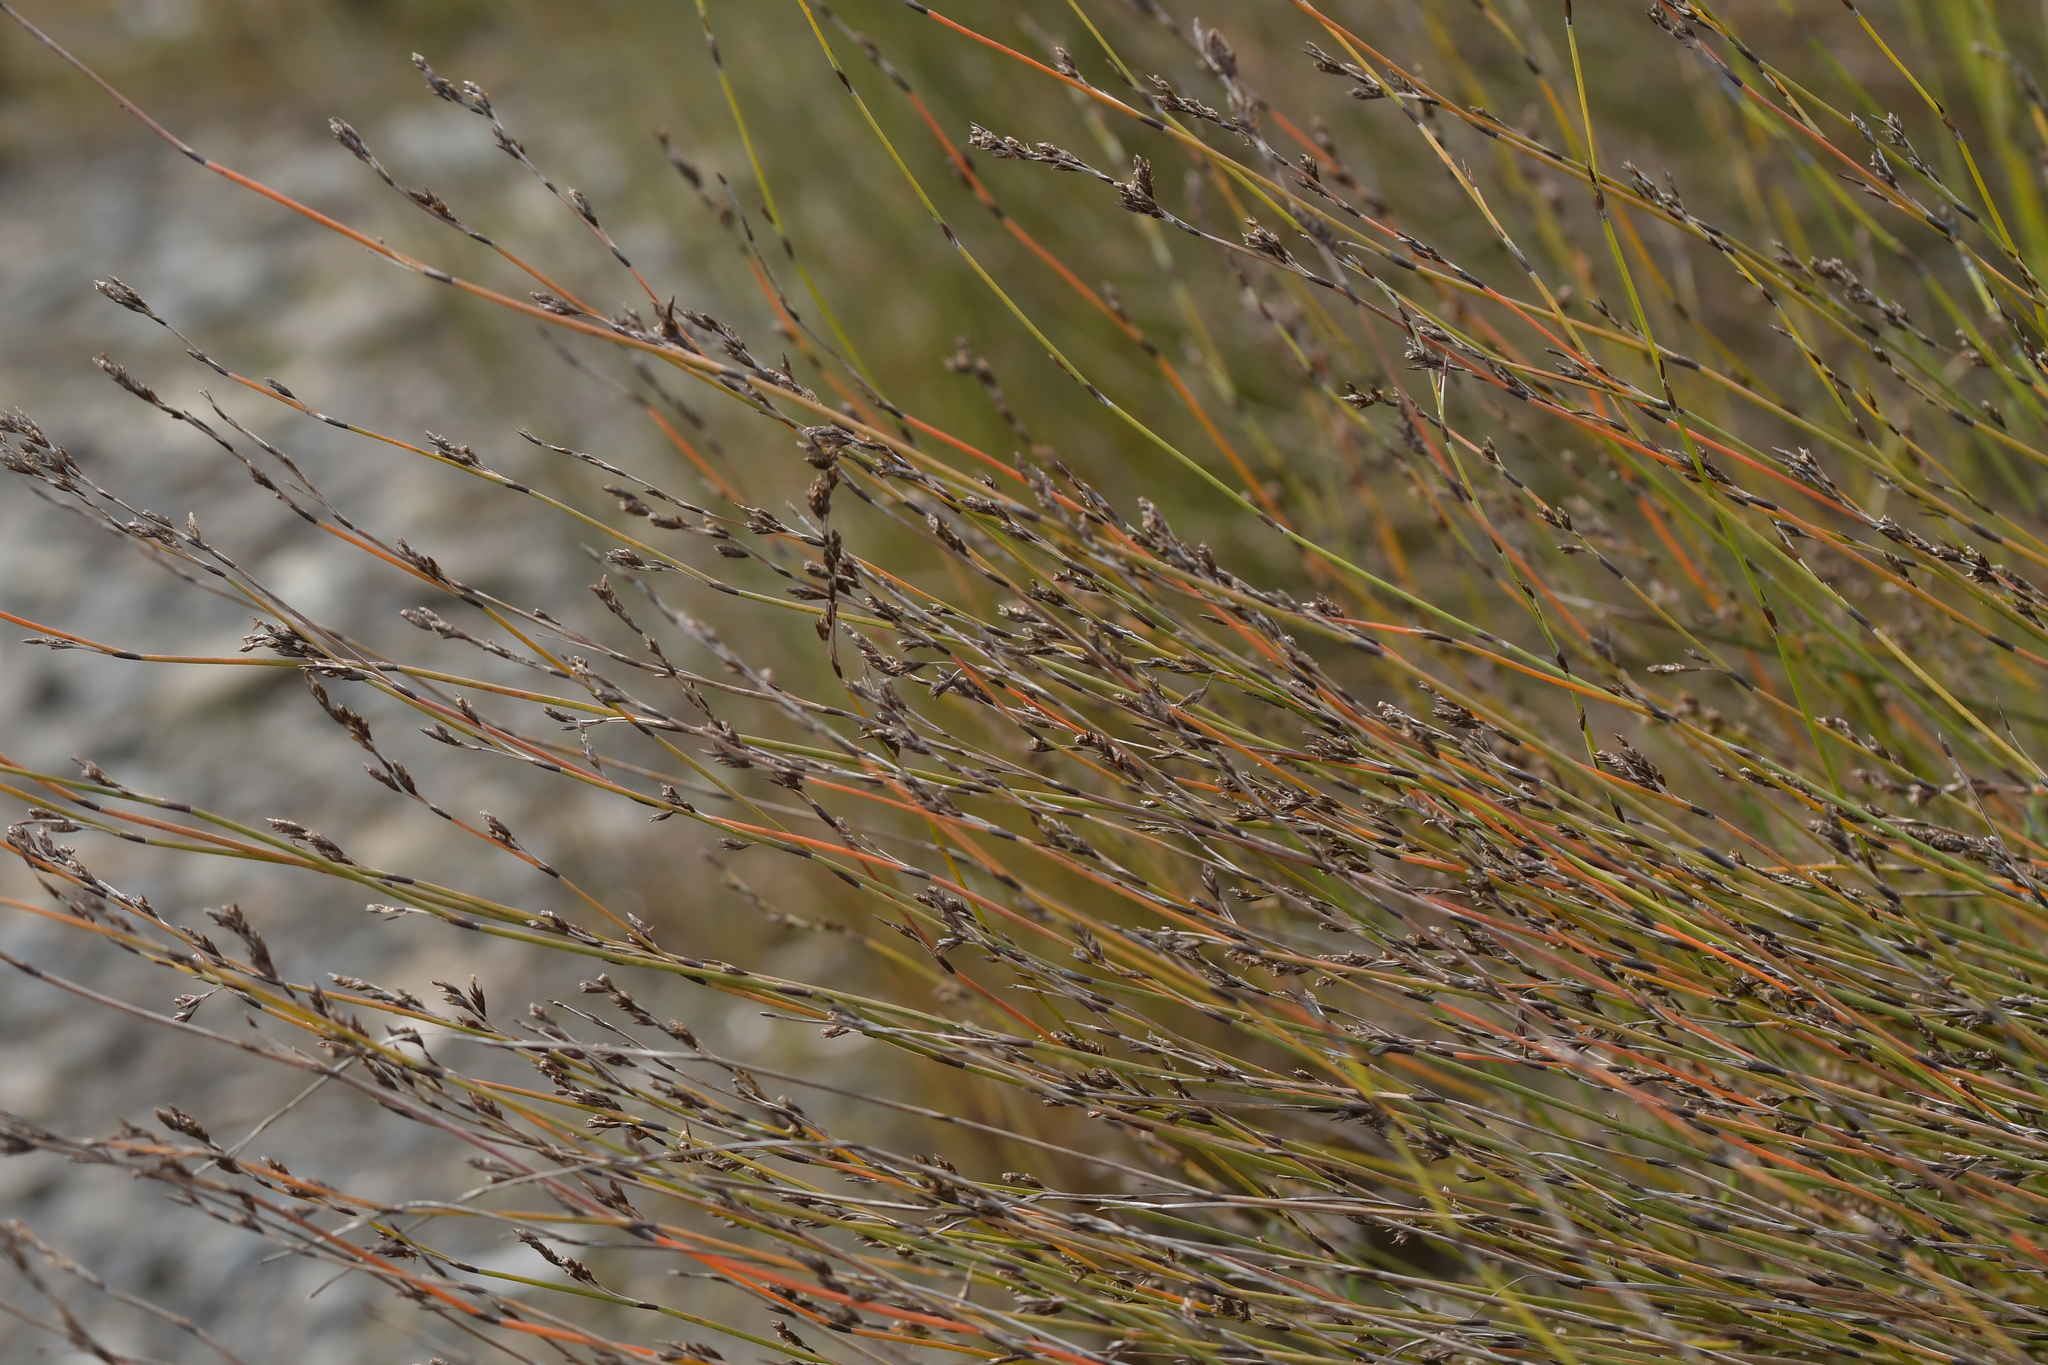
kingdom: Plantae
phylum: Tracheophyta
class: Liliopsida
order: Poales
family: Restionaceae
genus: Apodasmia
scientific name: Apodasmia similis
